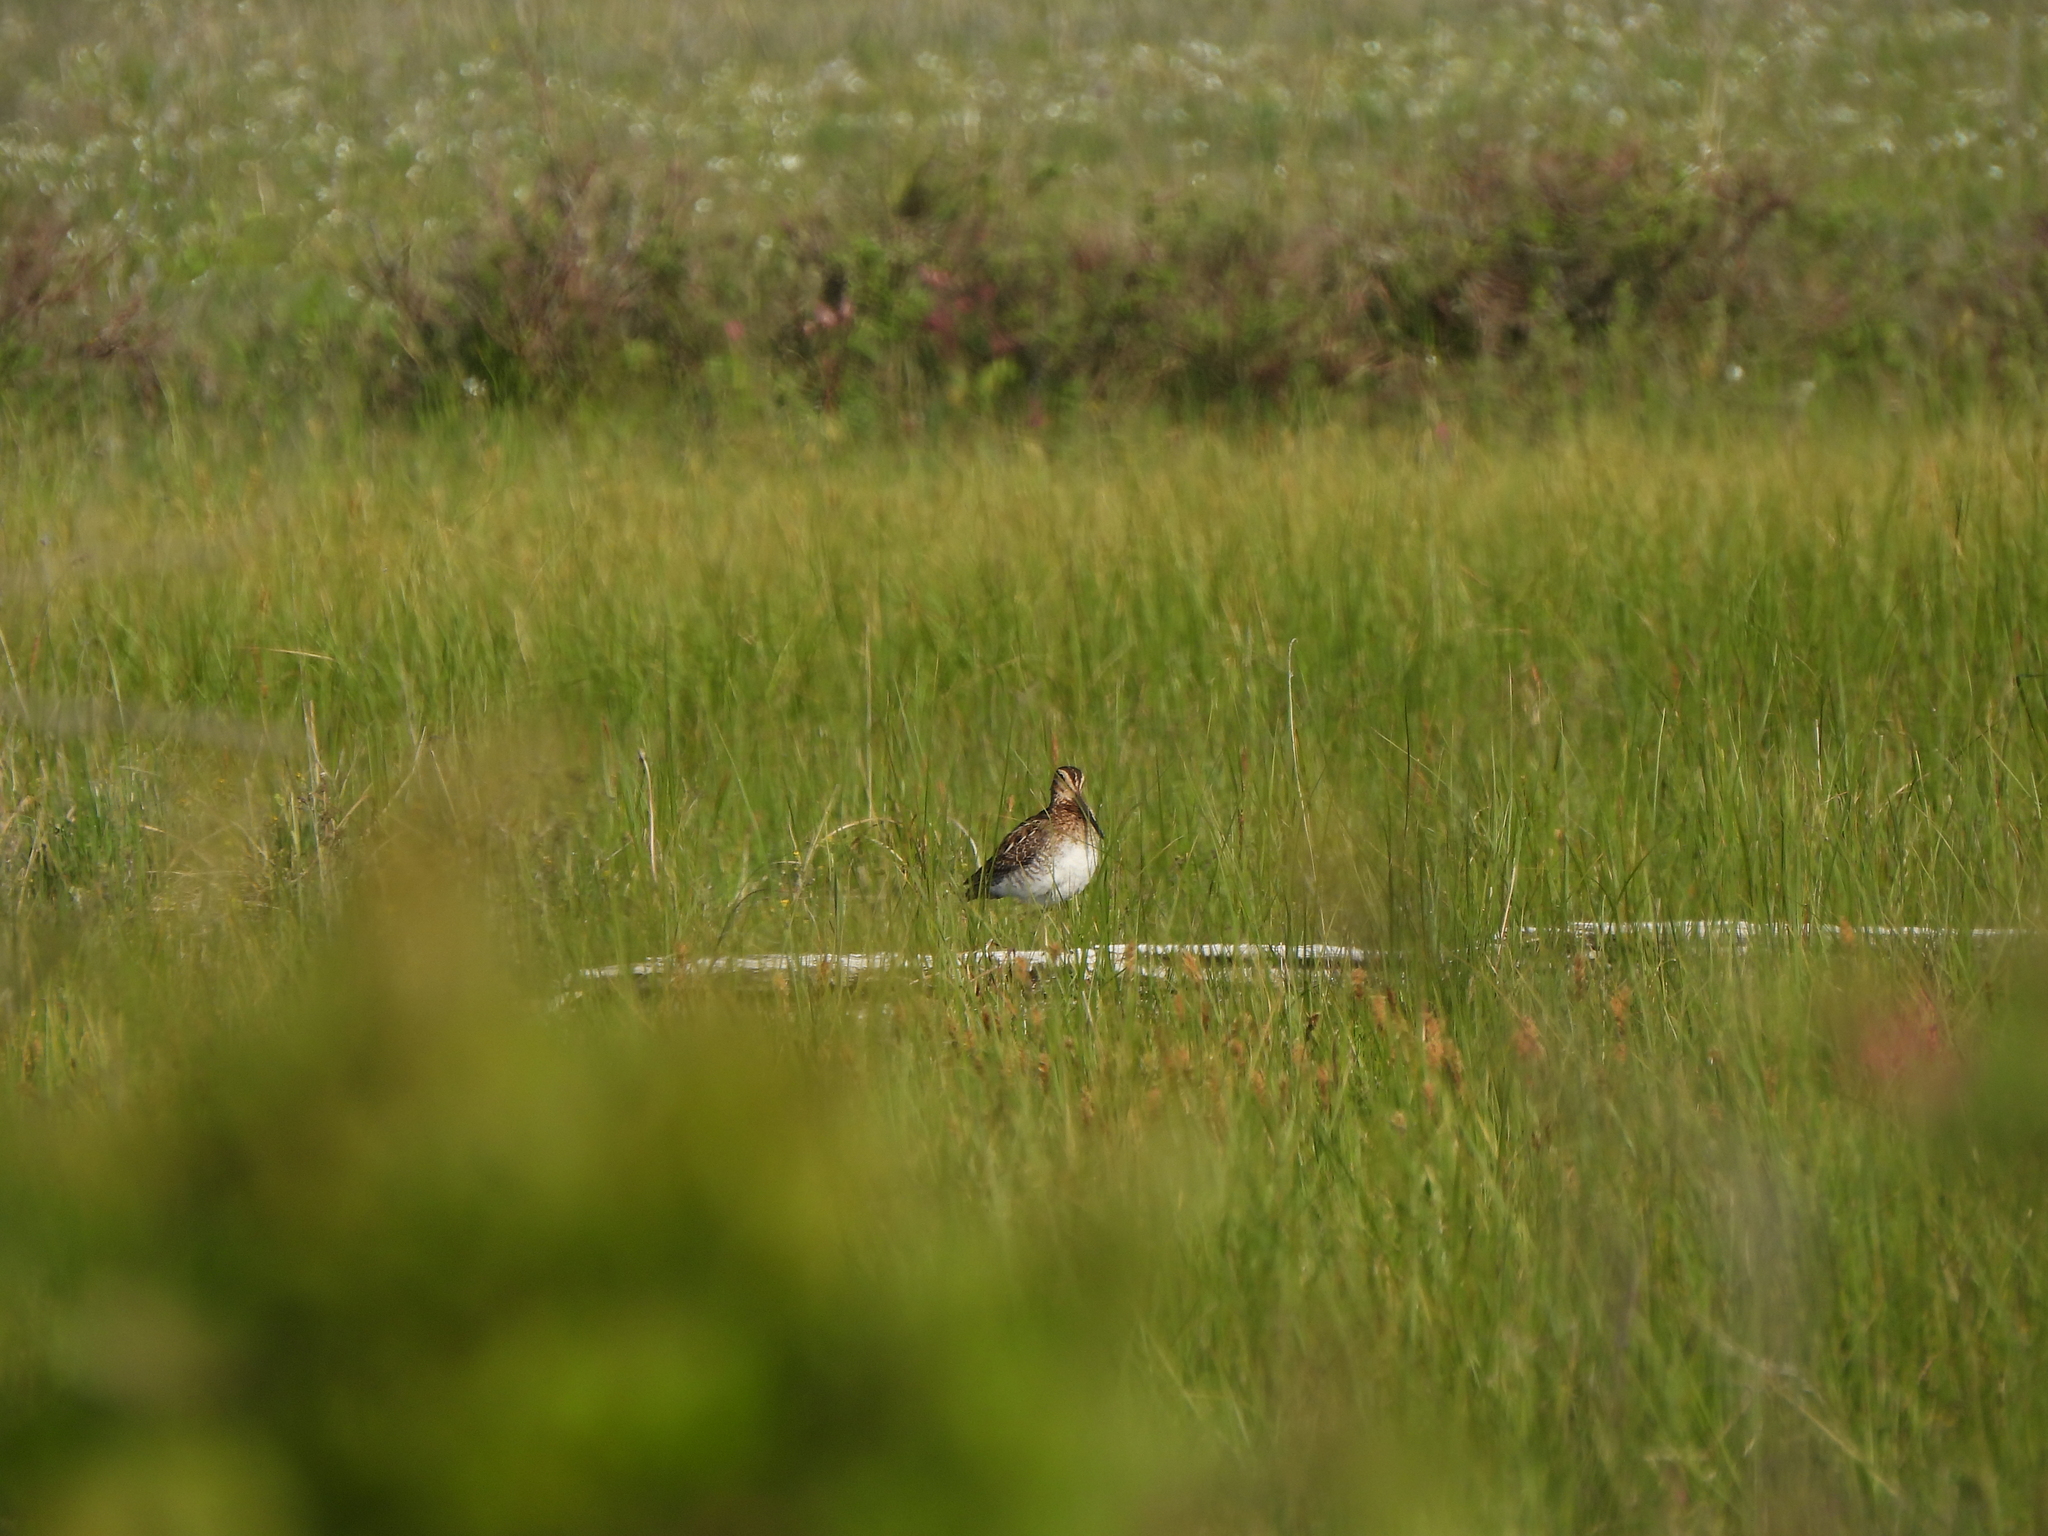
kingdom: Animalia
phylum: Chordata
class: Aves
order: Charadriiformes
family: Scolopacidae
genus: Gallinago
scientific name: Gallinago delicata
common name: Wilson's snipe
